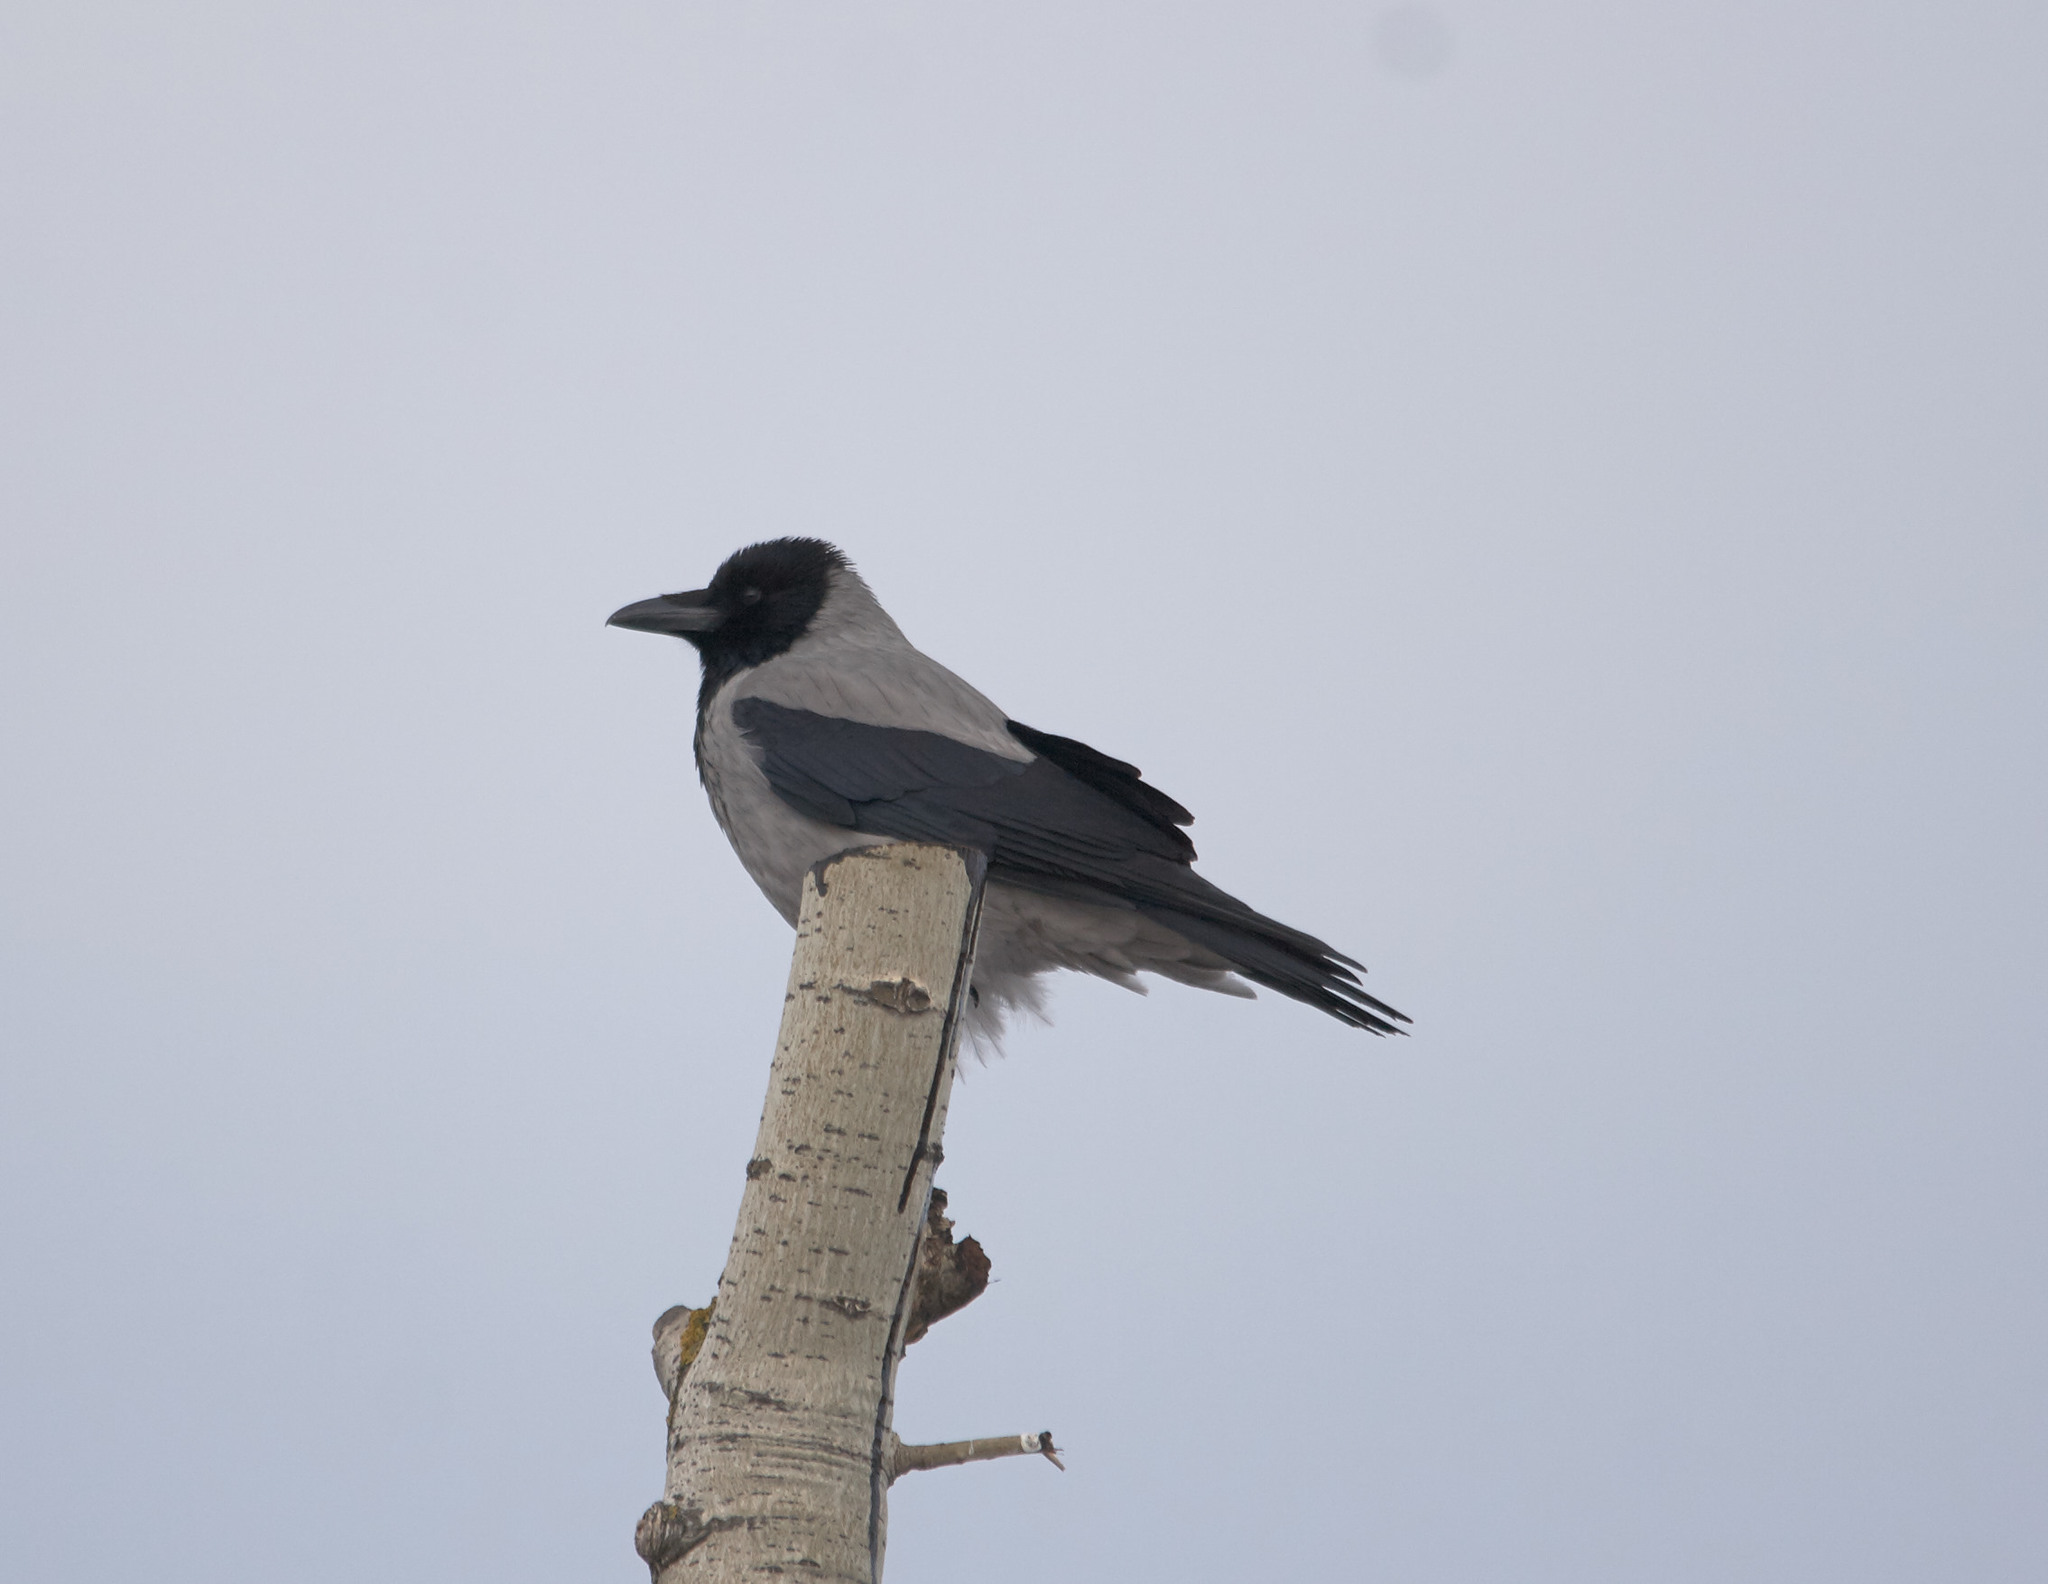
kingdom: Animalia
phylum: Chordata
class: Aves
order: Passeriformes
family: Corvidae
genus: Corvus
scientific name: Corvus cornix
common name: Hooded crow
